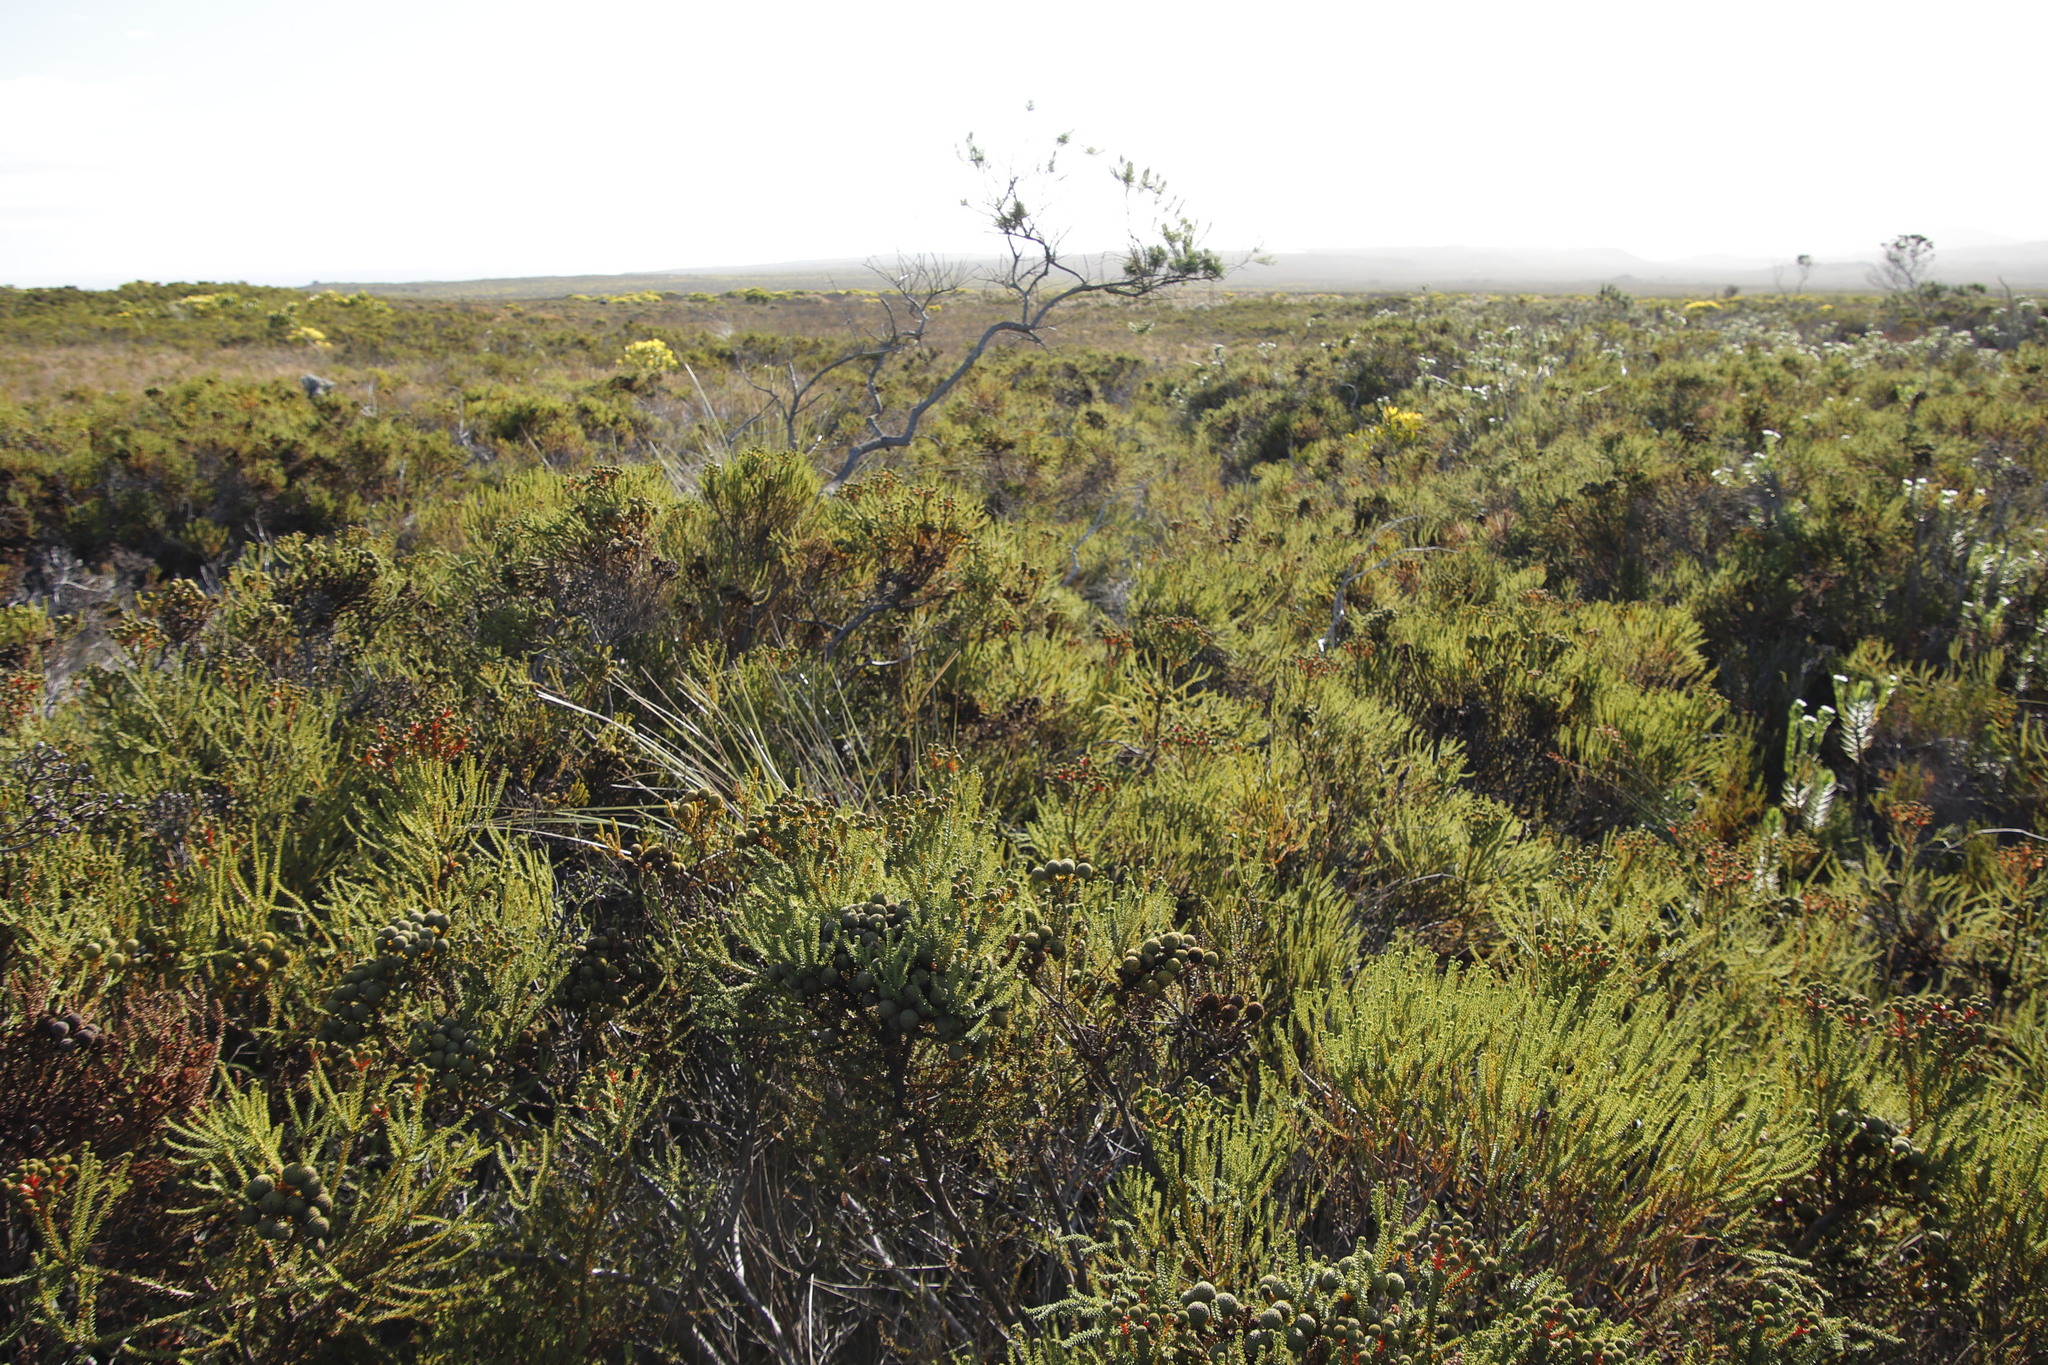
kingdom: Plantae
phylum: Tracheophyta
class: Magnoliopsida
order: Bruniales
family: Bruniaceae
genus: Berzelia
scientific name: Berzelia abrotanoides
